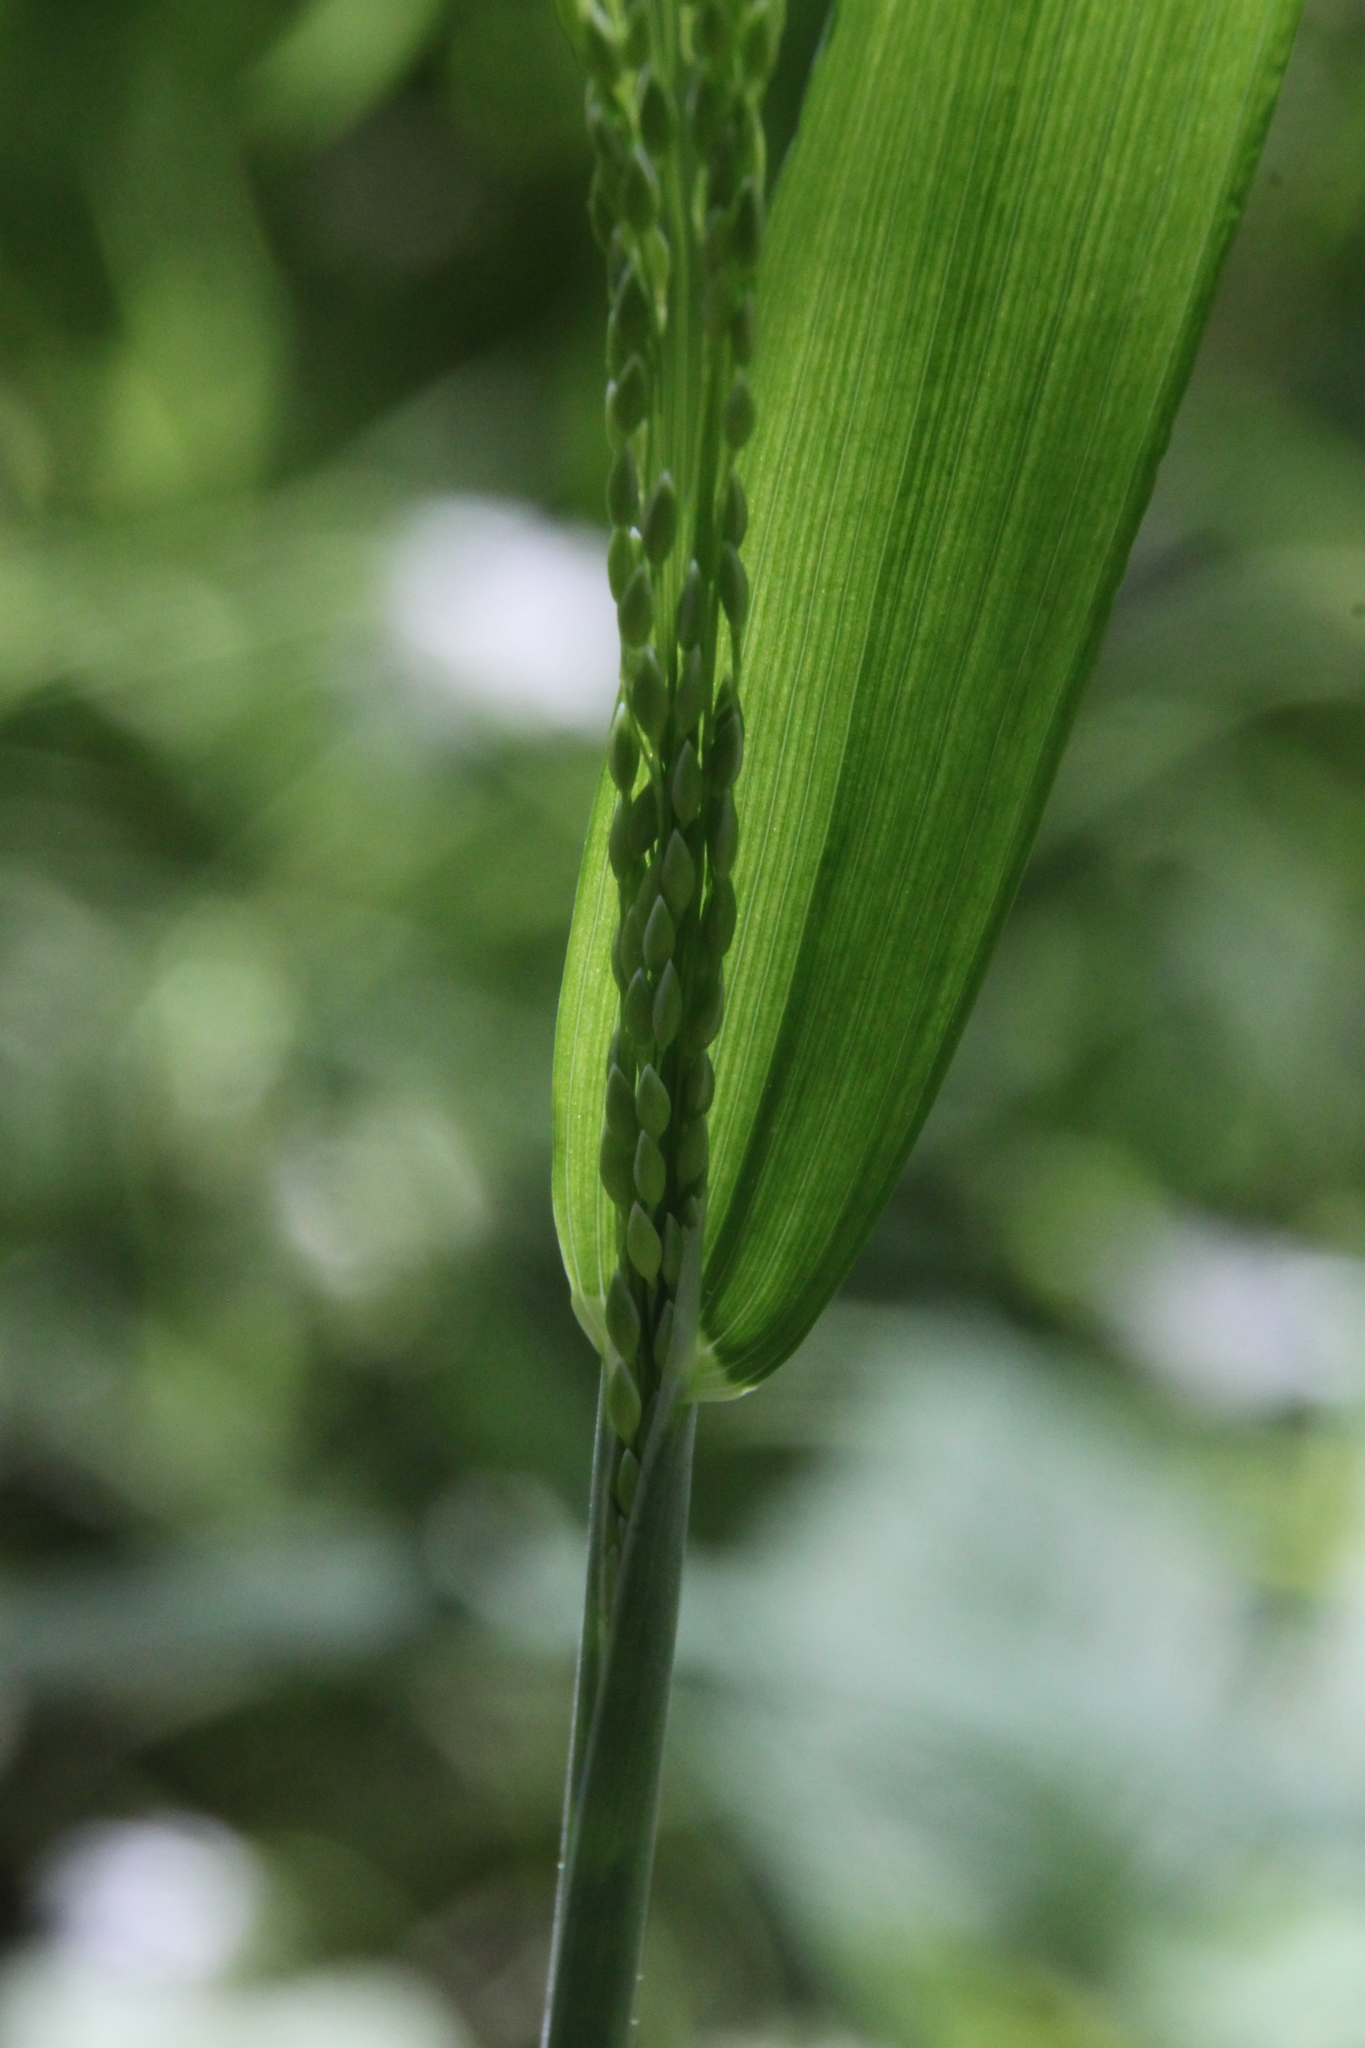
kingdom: Plantae
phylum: Tracheophyta
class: Liliopsida
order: Poales
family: Poaceae
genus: Milium
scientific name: Milium effusum
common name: Wood millet
